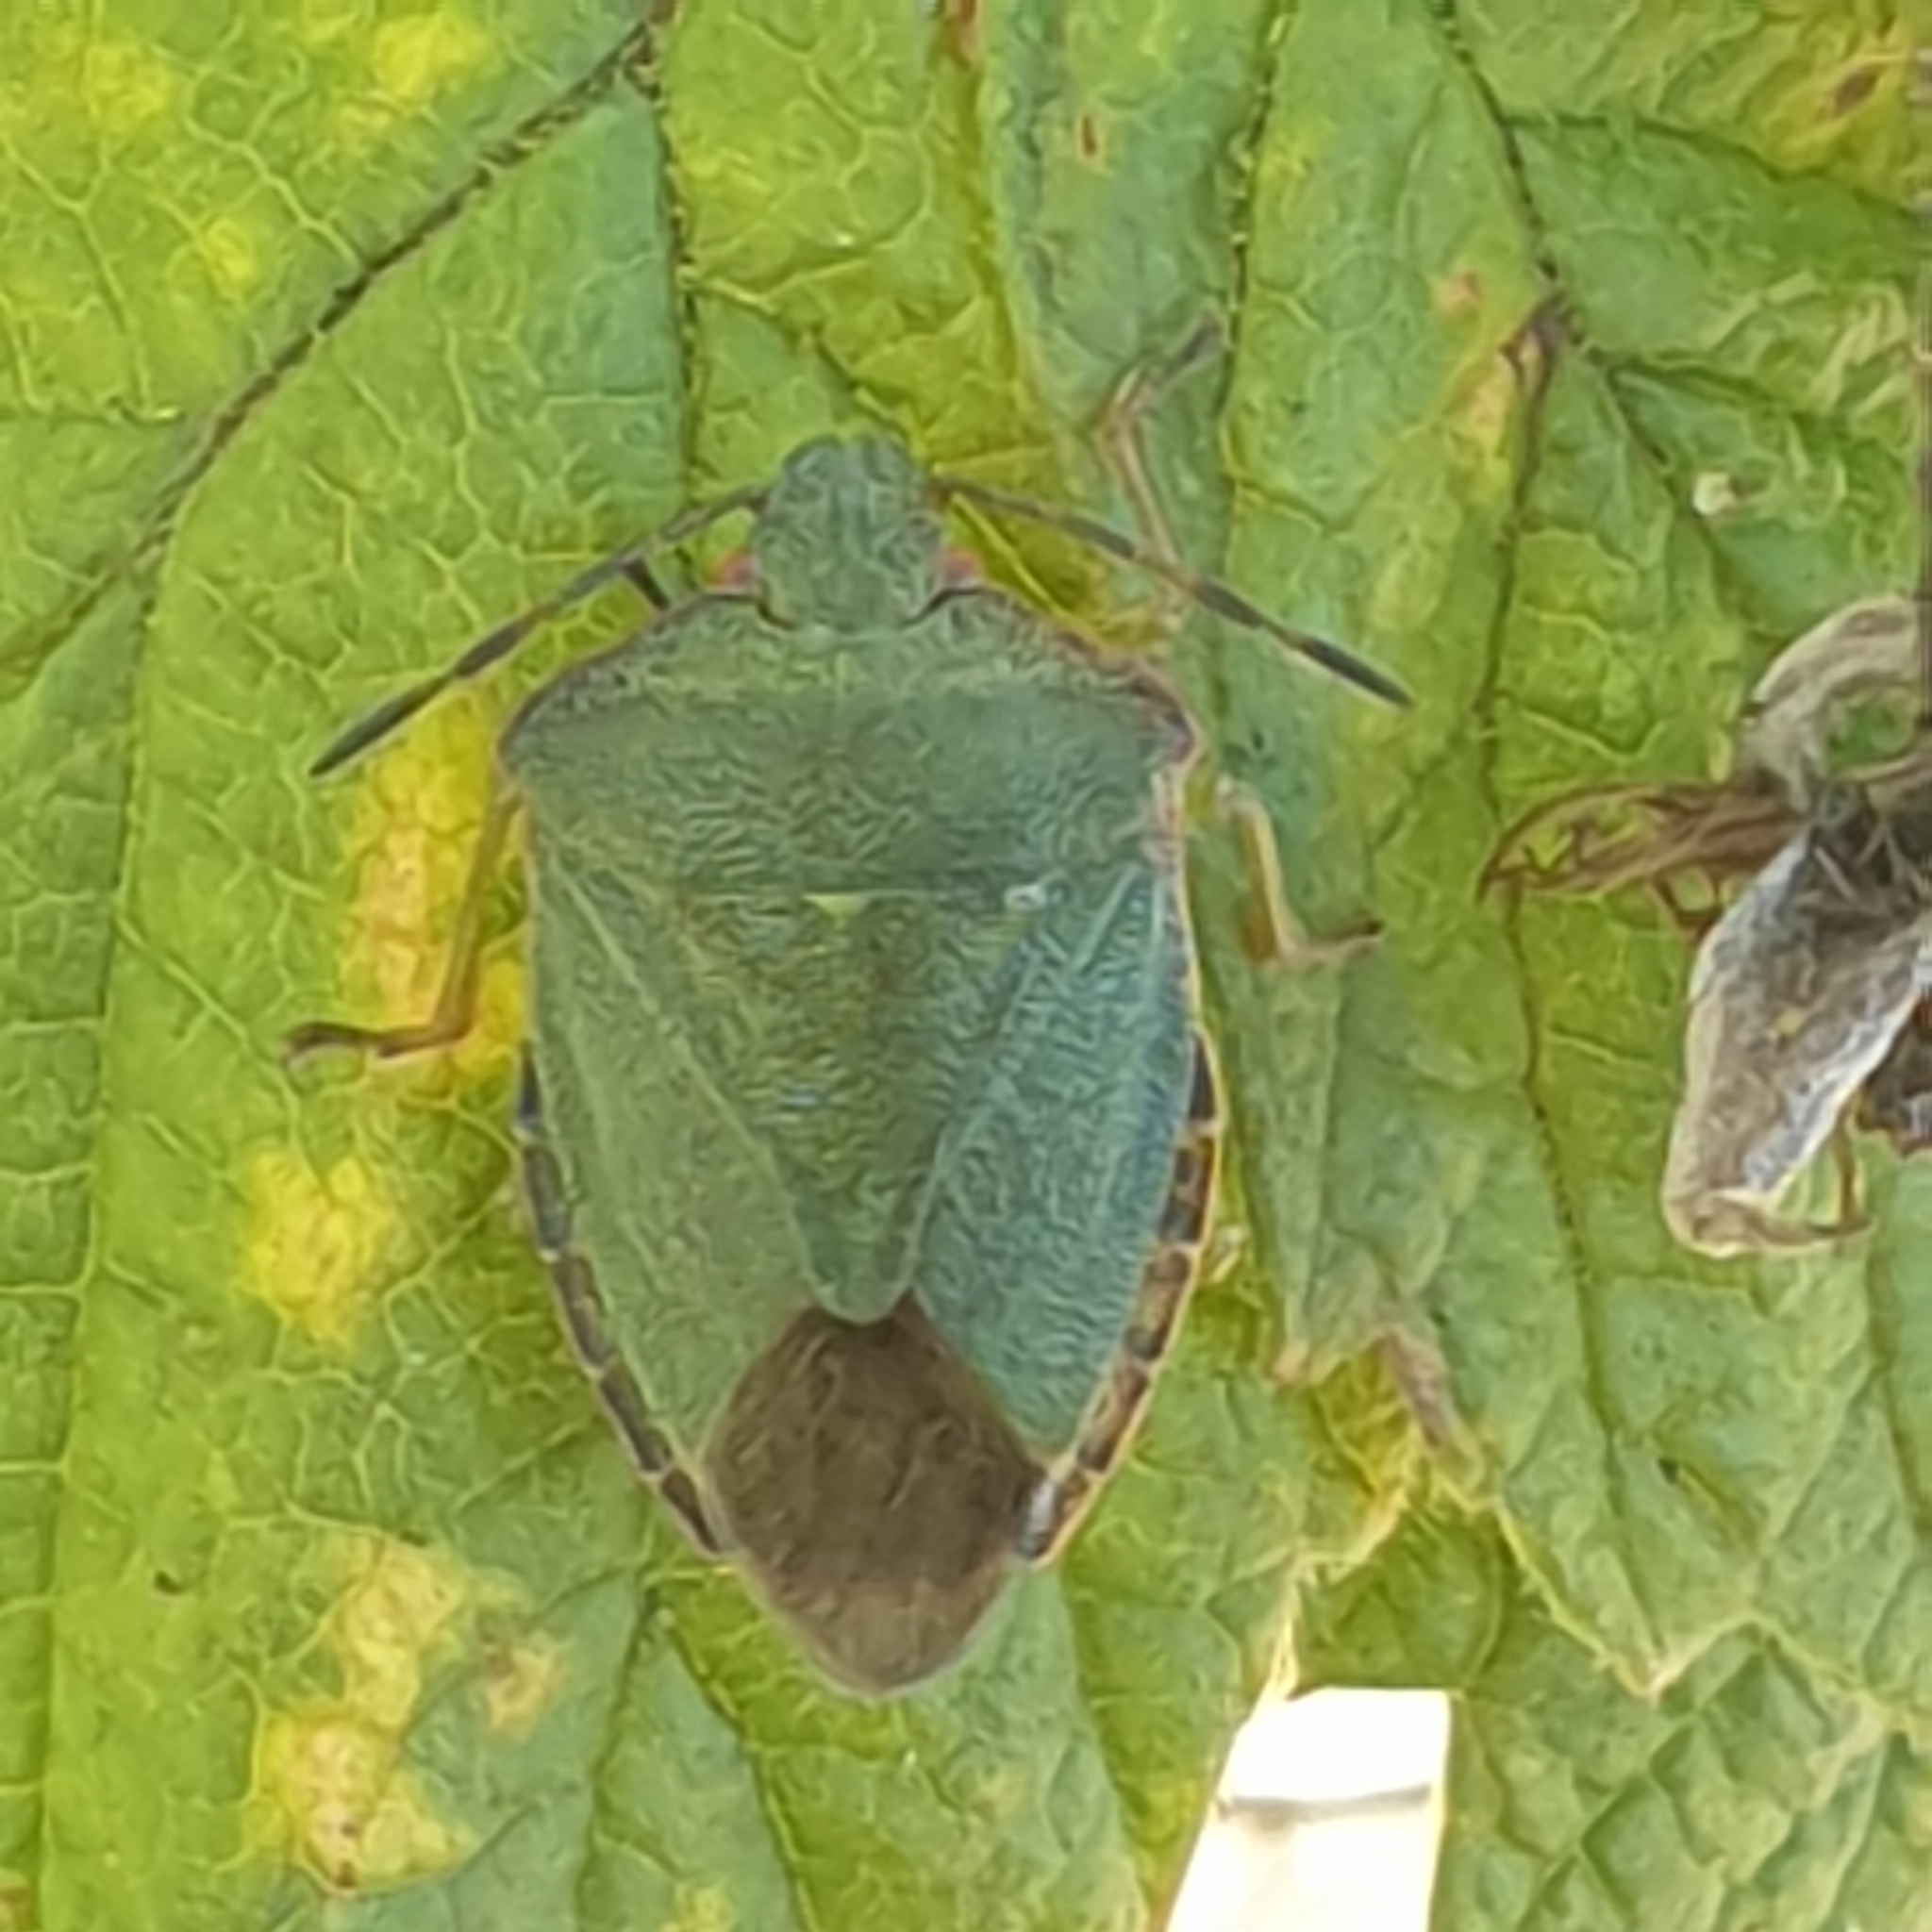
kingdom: Animalia
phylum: Arthropoda
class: Insecta
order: Hemiptera
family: Pentatomidae
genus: Palomena
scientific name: Palomena prasina
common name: Green shieldbug
